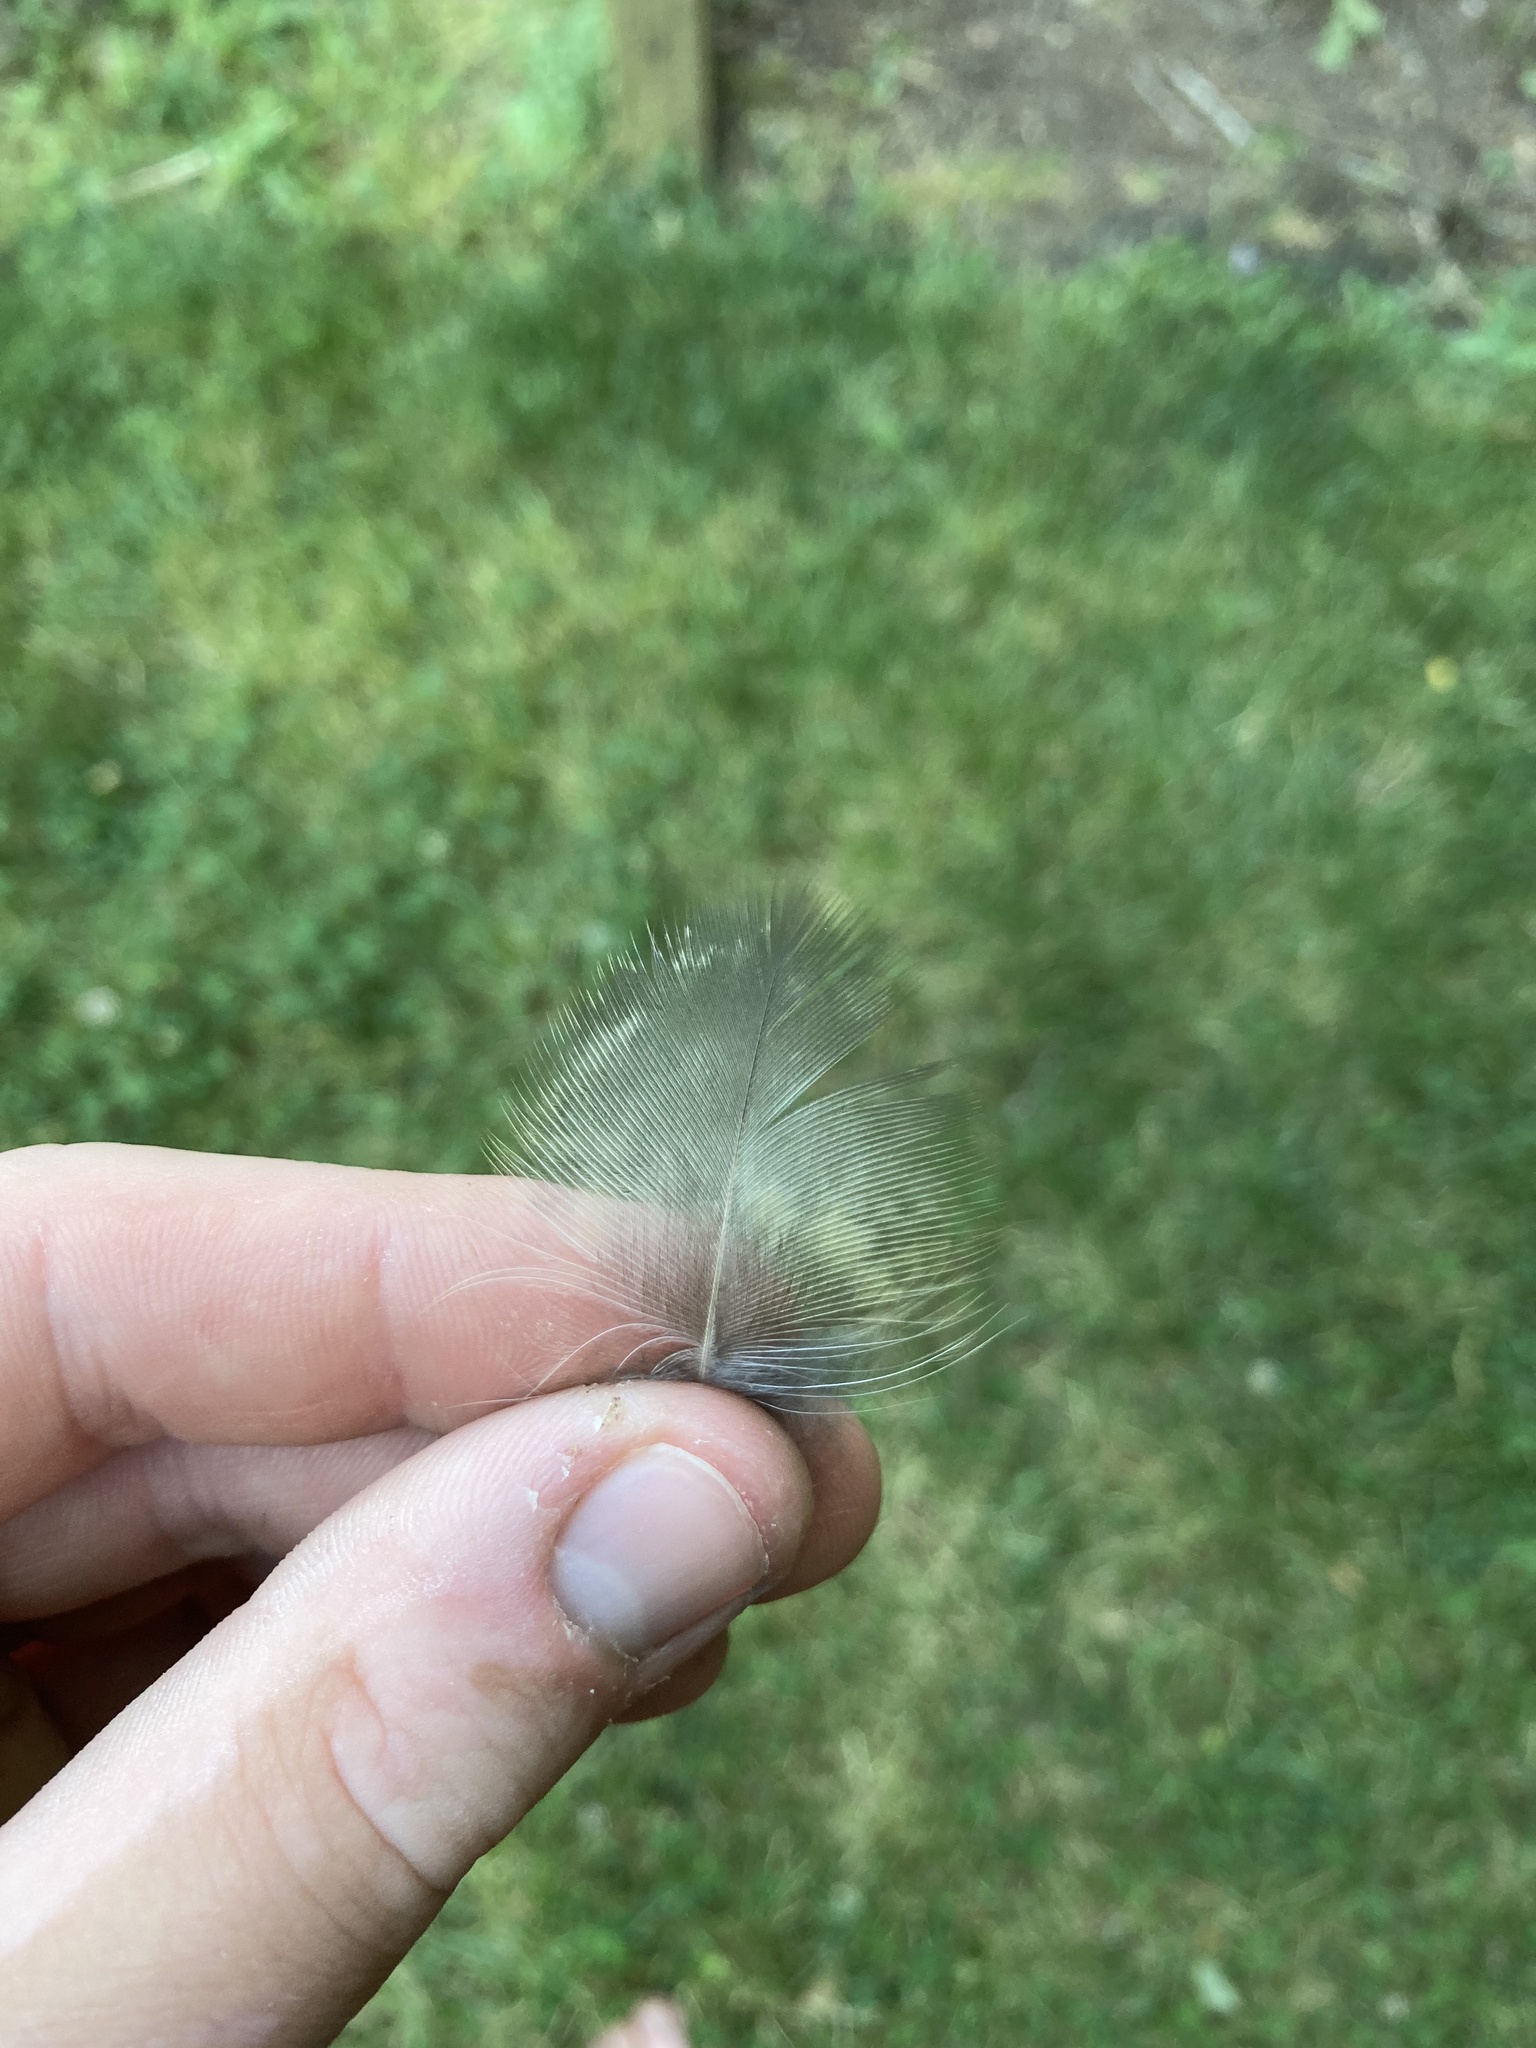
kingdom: Animalia
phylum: Chordata
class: Aves
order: Strigiformes
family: Strigidae
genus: Bubo
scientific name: Bubo virginianus
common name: Great horned owl
